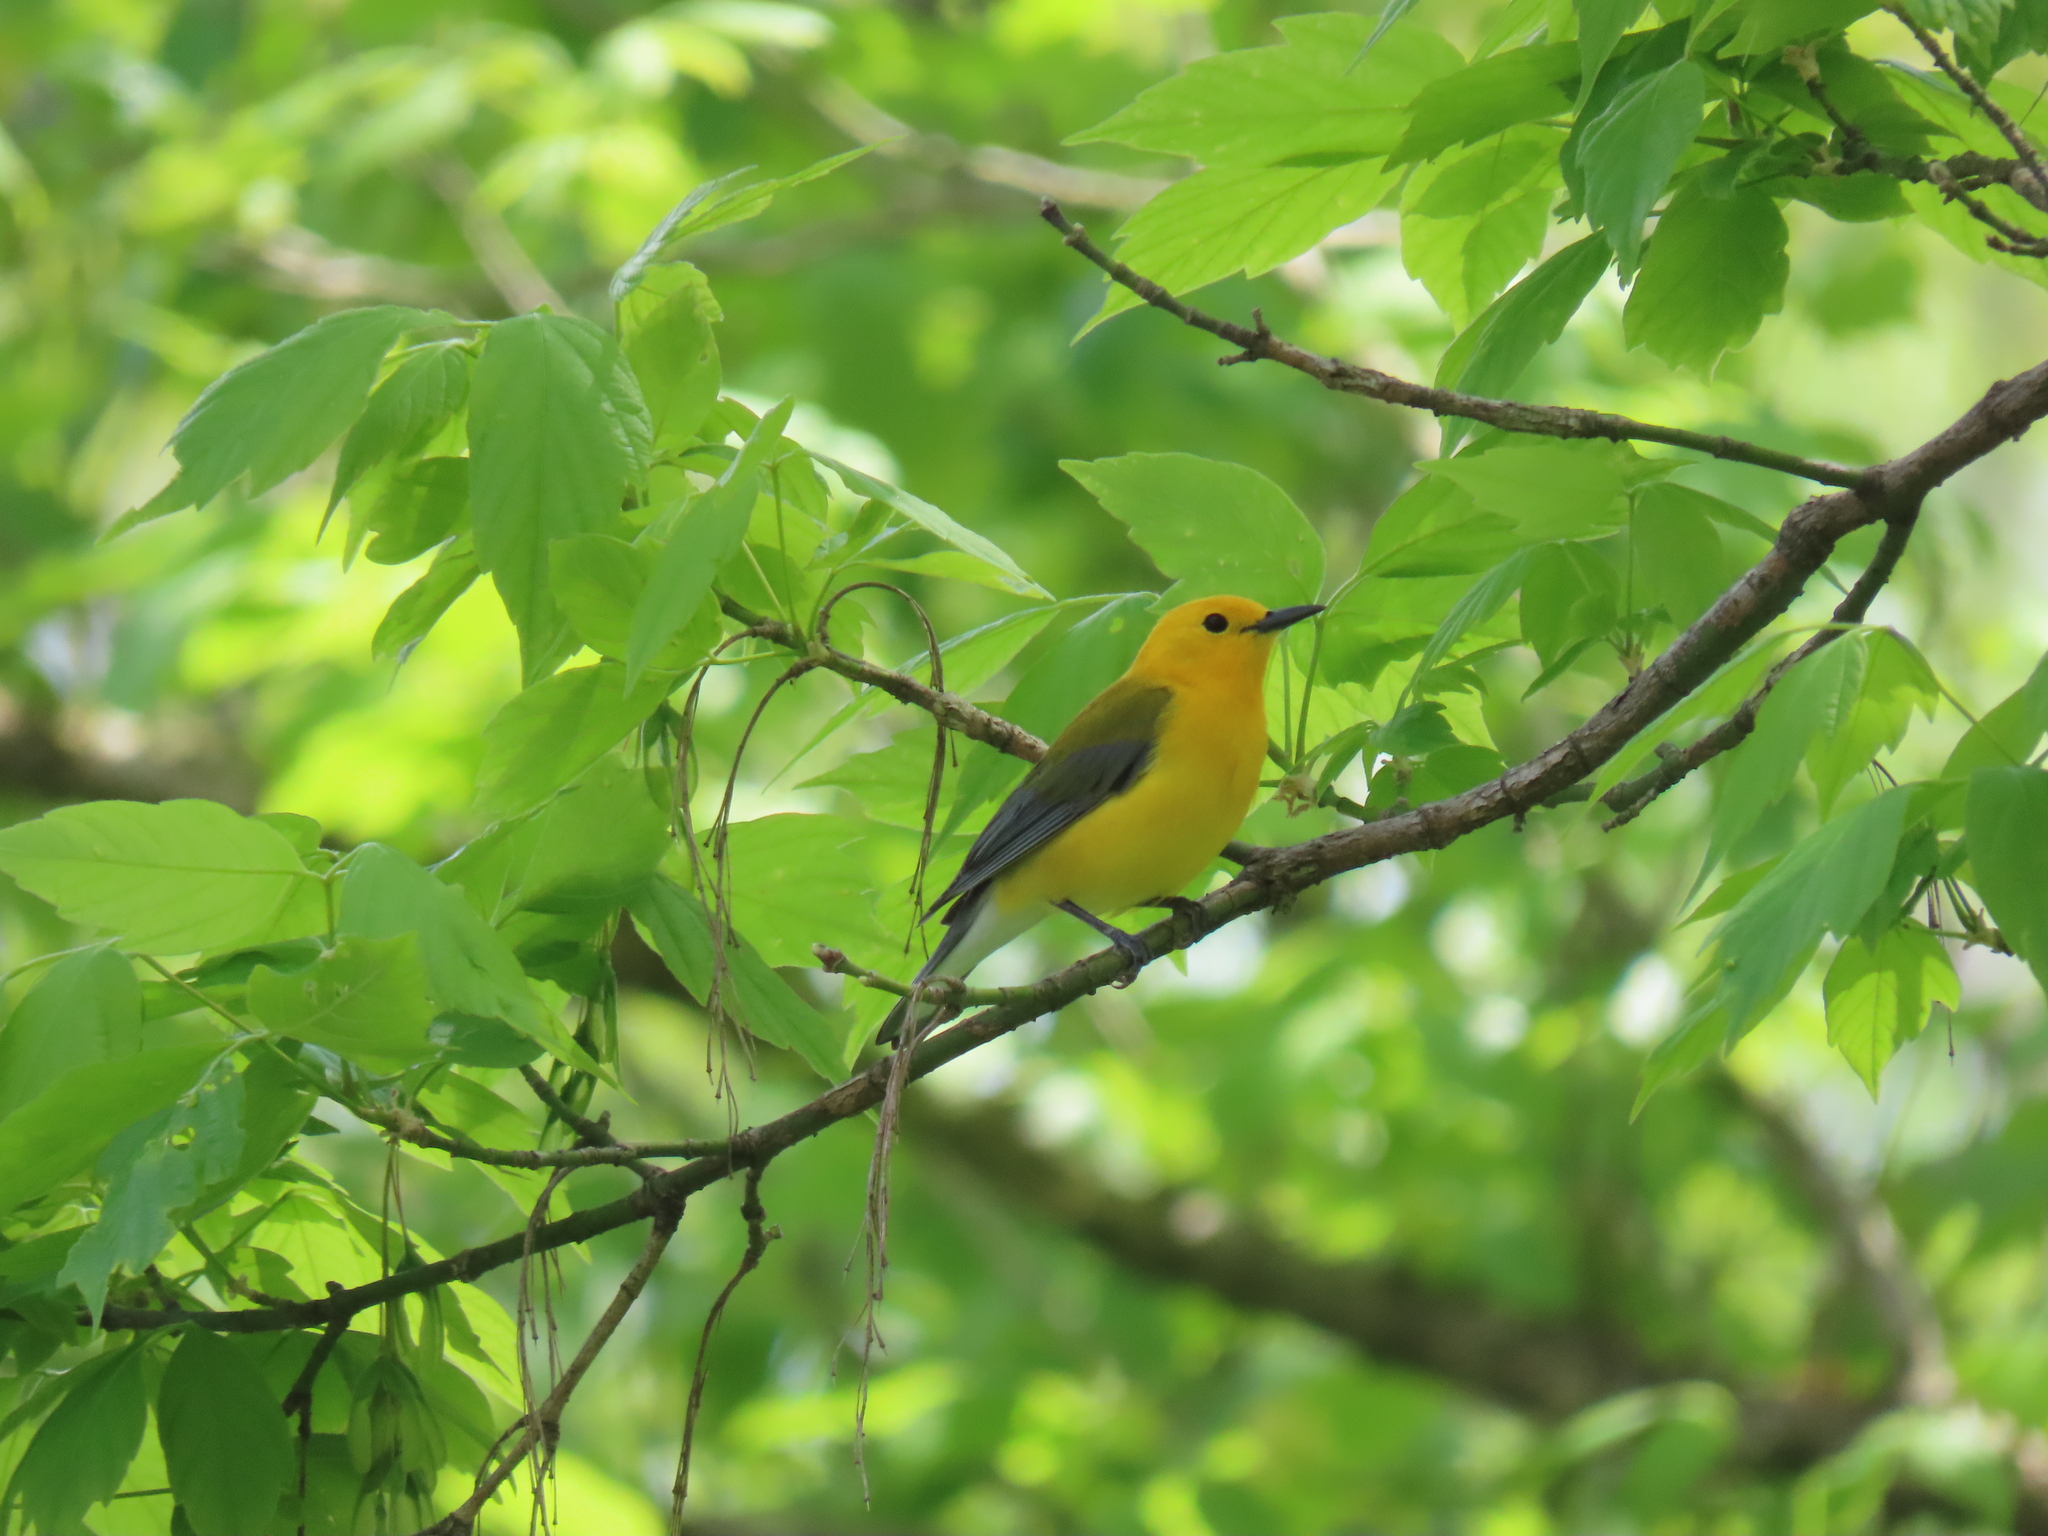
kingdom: Animalia
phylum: Chordata
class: Aves
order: Passeriformes
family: Parulidae
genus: Protonotaria
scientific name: Protonotaria citrea
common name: Prothonotary warbler
